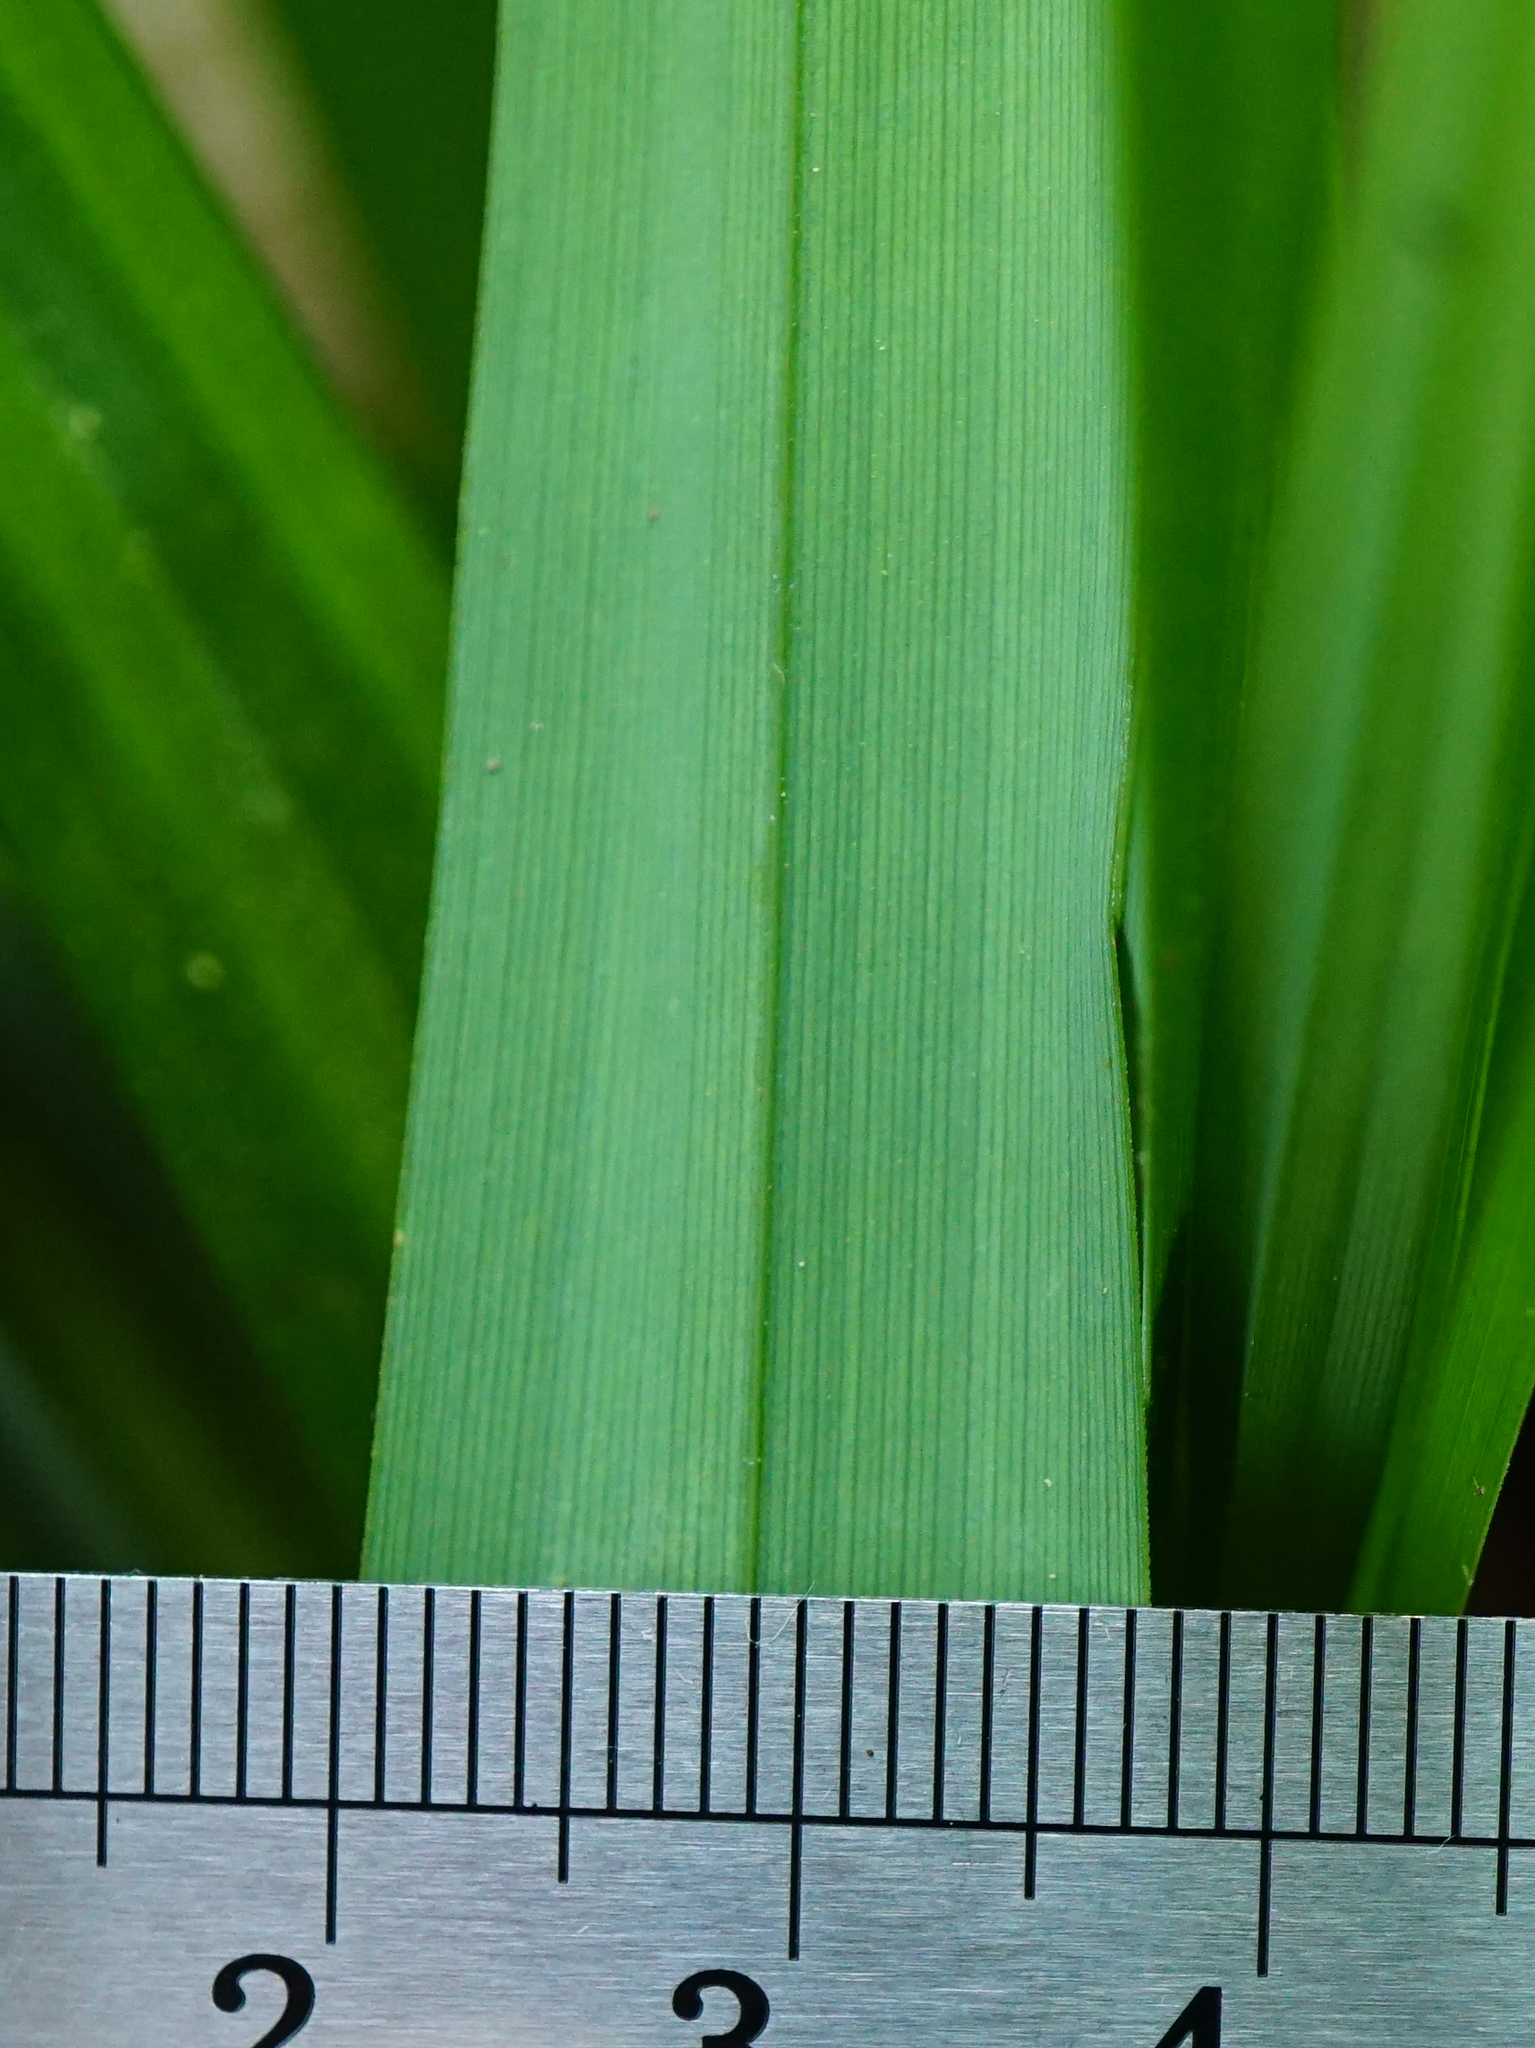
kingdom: Plantae
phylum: Tracheophyta
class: Liliopsida
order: Poales
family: Cyperaceae
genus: Carex
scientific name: Carex pendula
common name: Pendulous sedge
